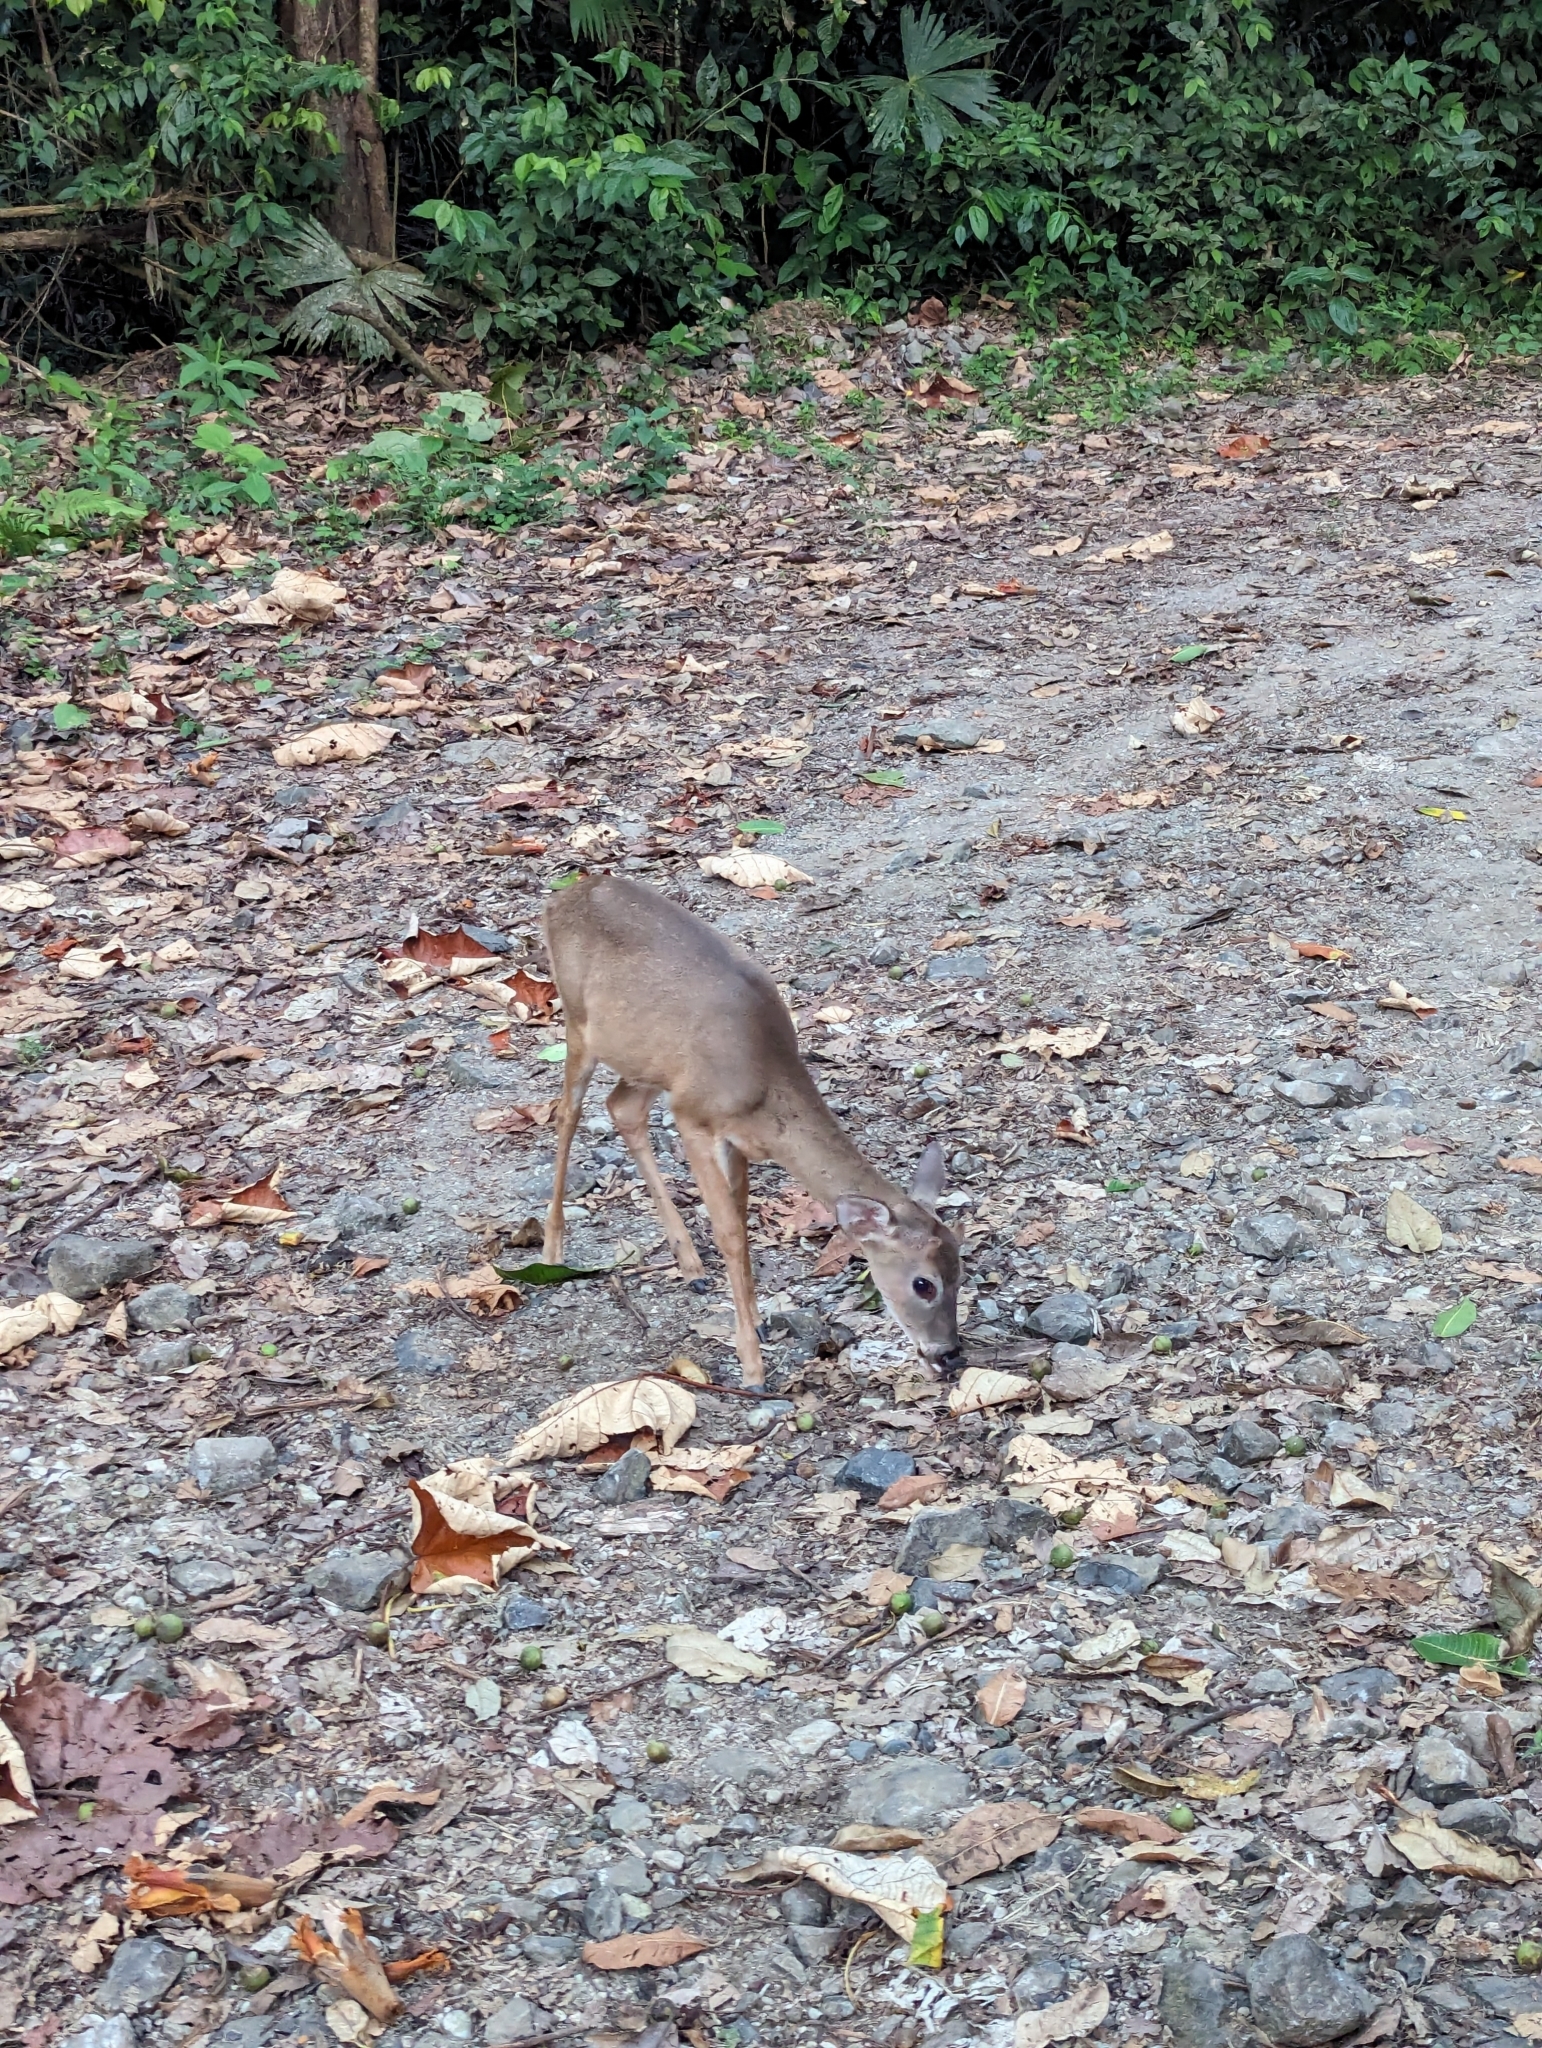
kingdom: Animalia
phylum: Chordata
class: Mammalia
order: Artiodactyla
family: Cervidae
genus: Odocoileus
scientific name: Odocoileus virginianus
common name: White-tailed deer
